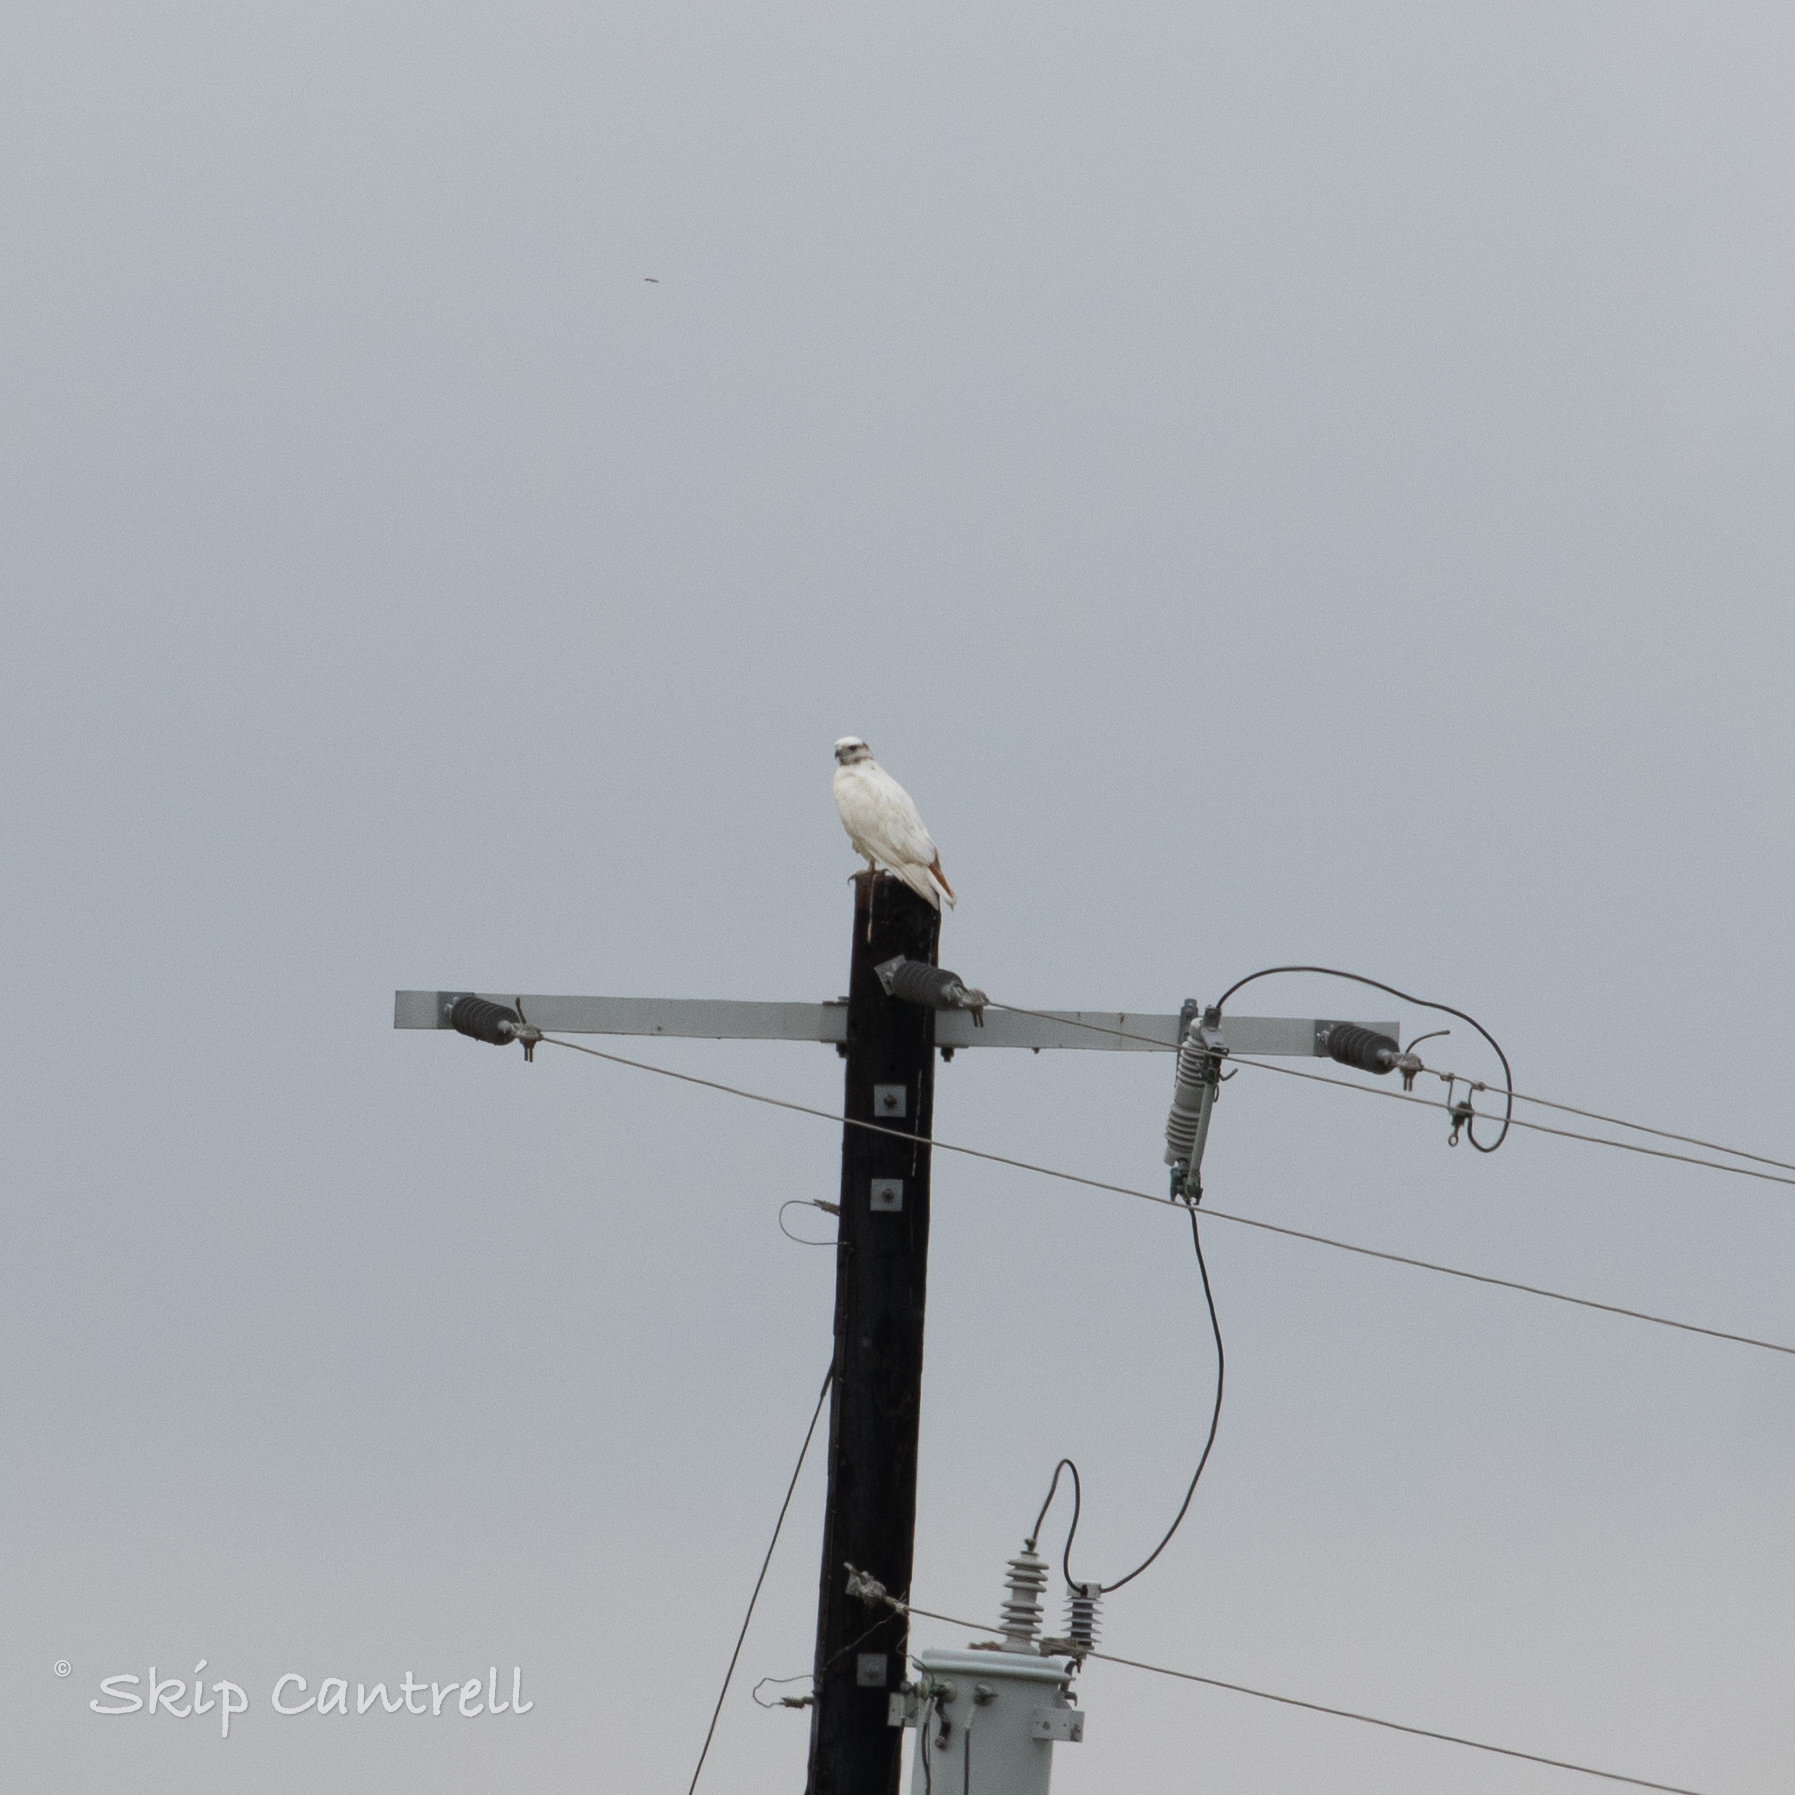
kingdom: Animalia
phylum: Chordata
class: Aves
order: Accipitriformes
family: Accipitridae
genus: Buteo
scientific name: Buteo jamaicensis
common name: Red-tailed hawk
